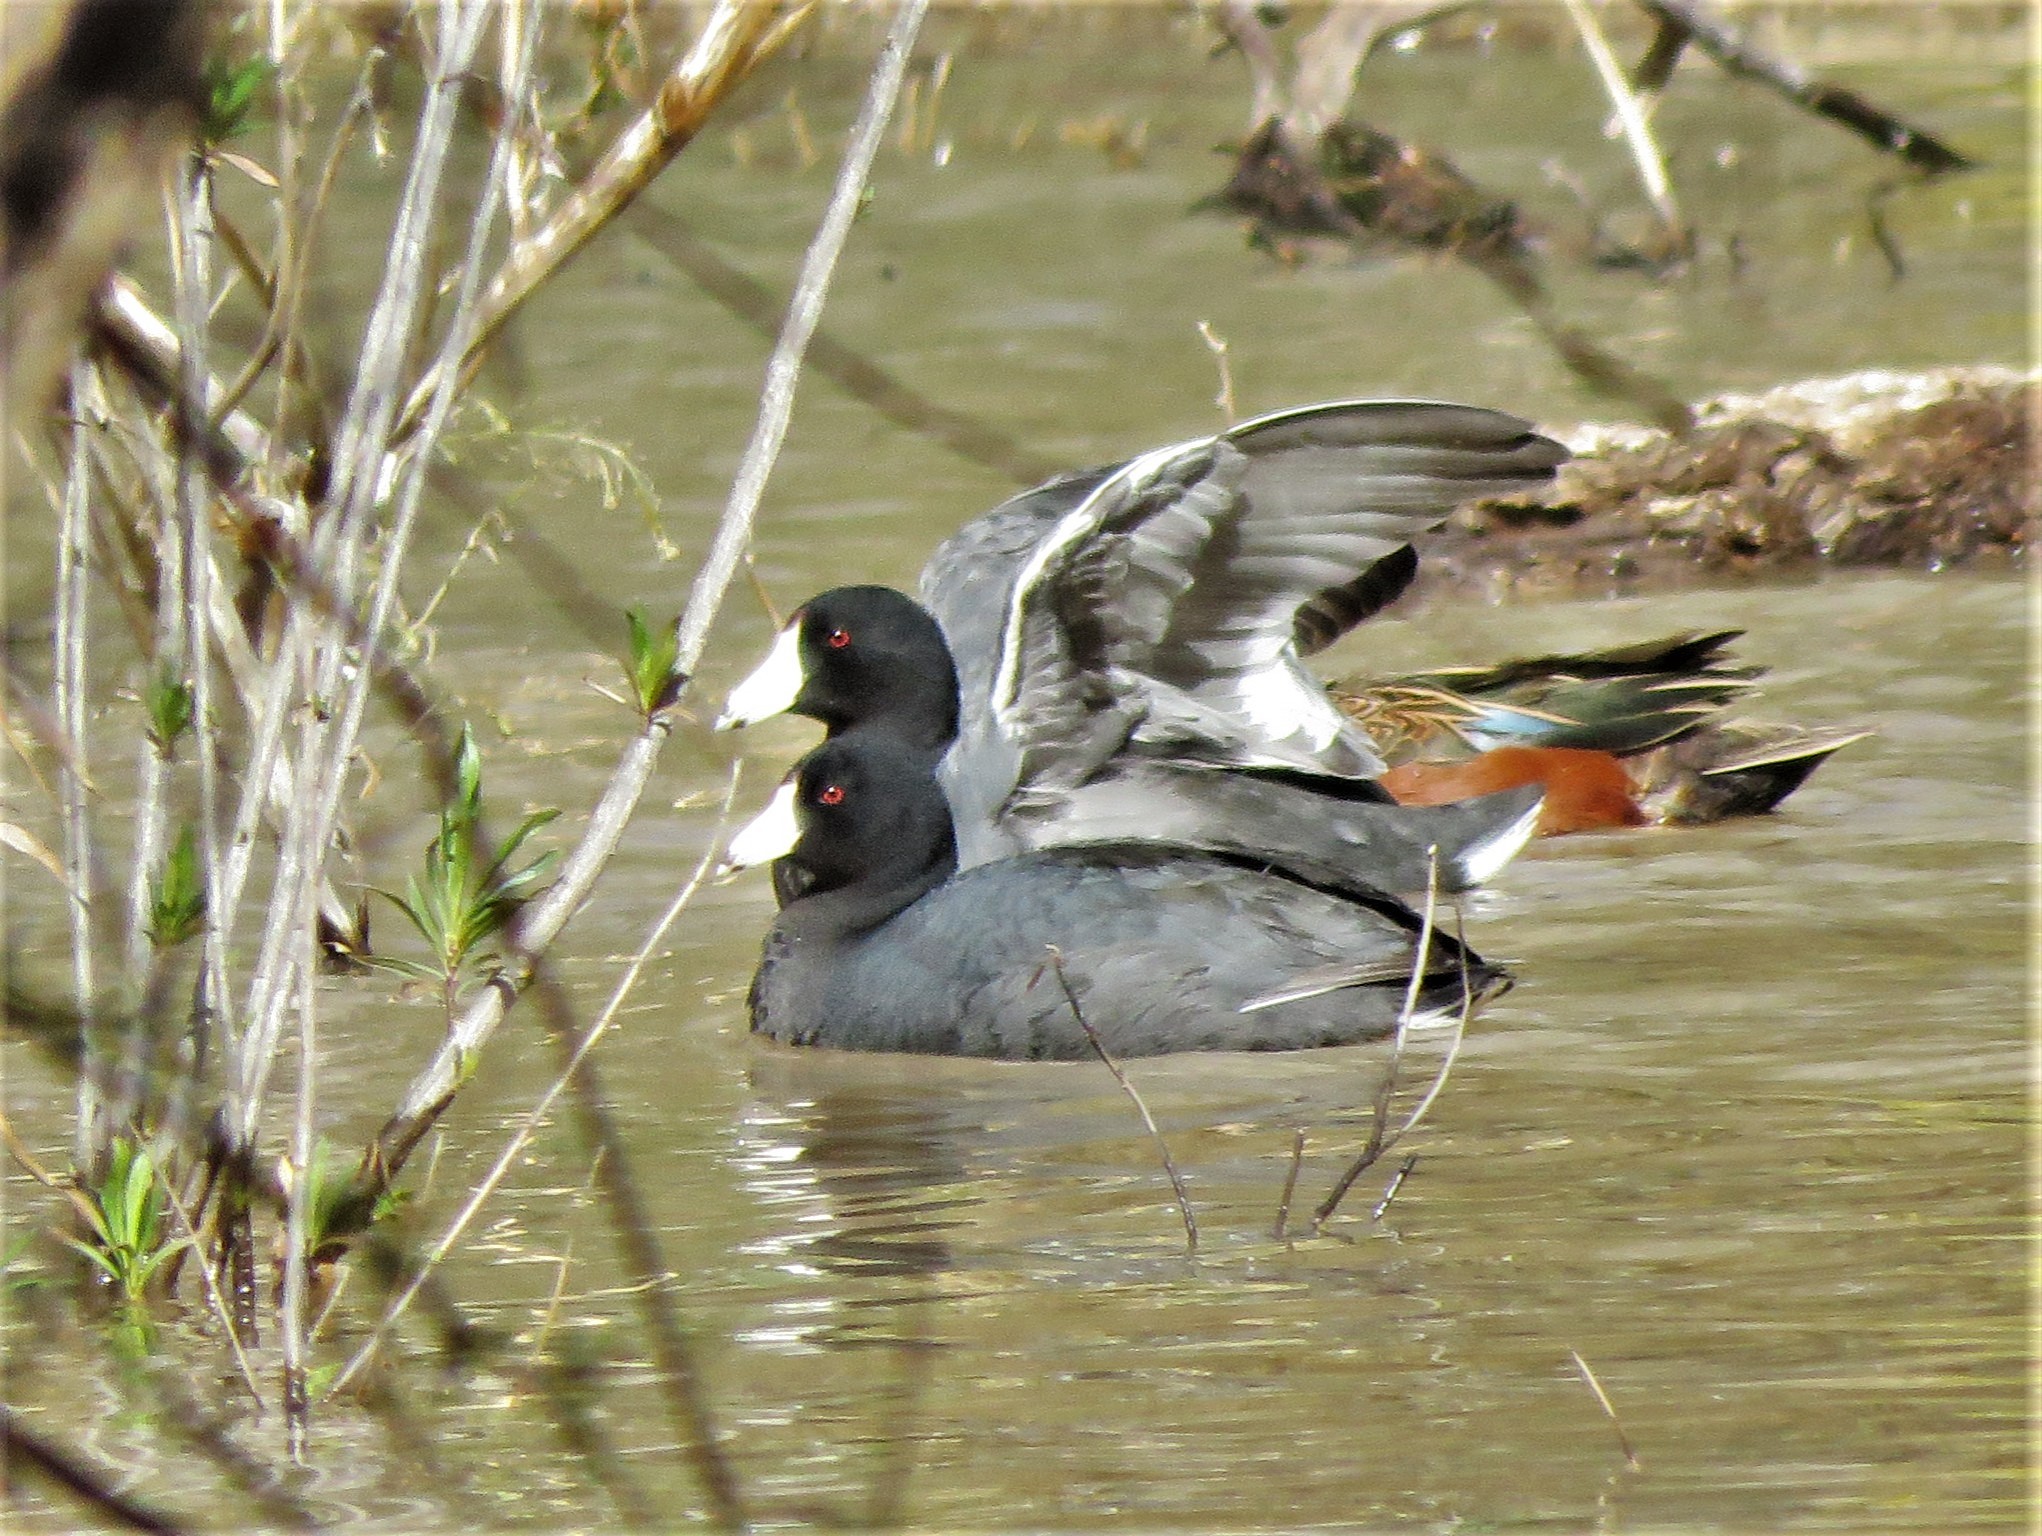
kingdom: Animalia
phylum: Chordata
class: Aves
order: Gruiformes
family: Rallidae
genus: Fulica
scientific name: Fulica americana
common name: American coot
